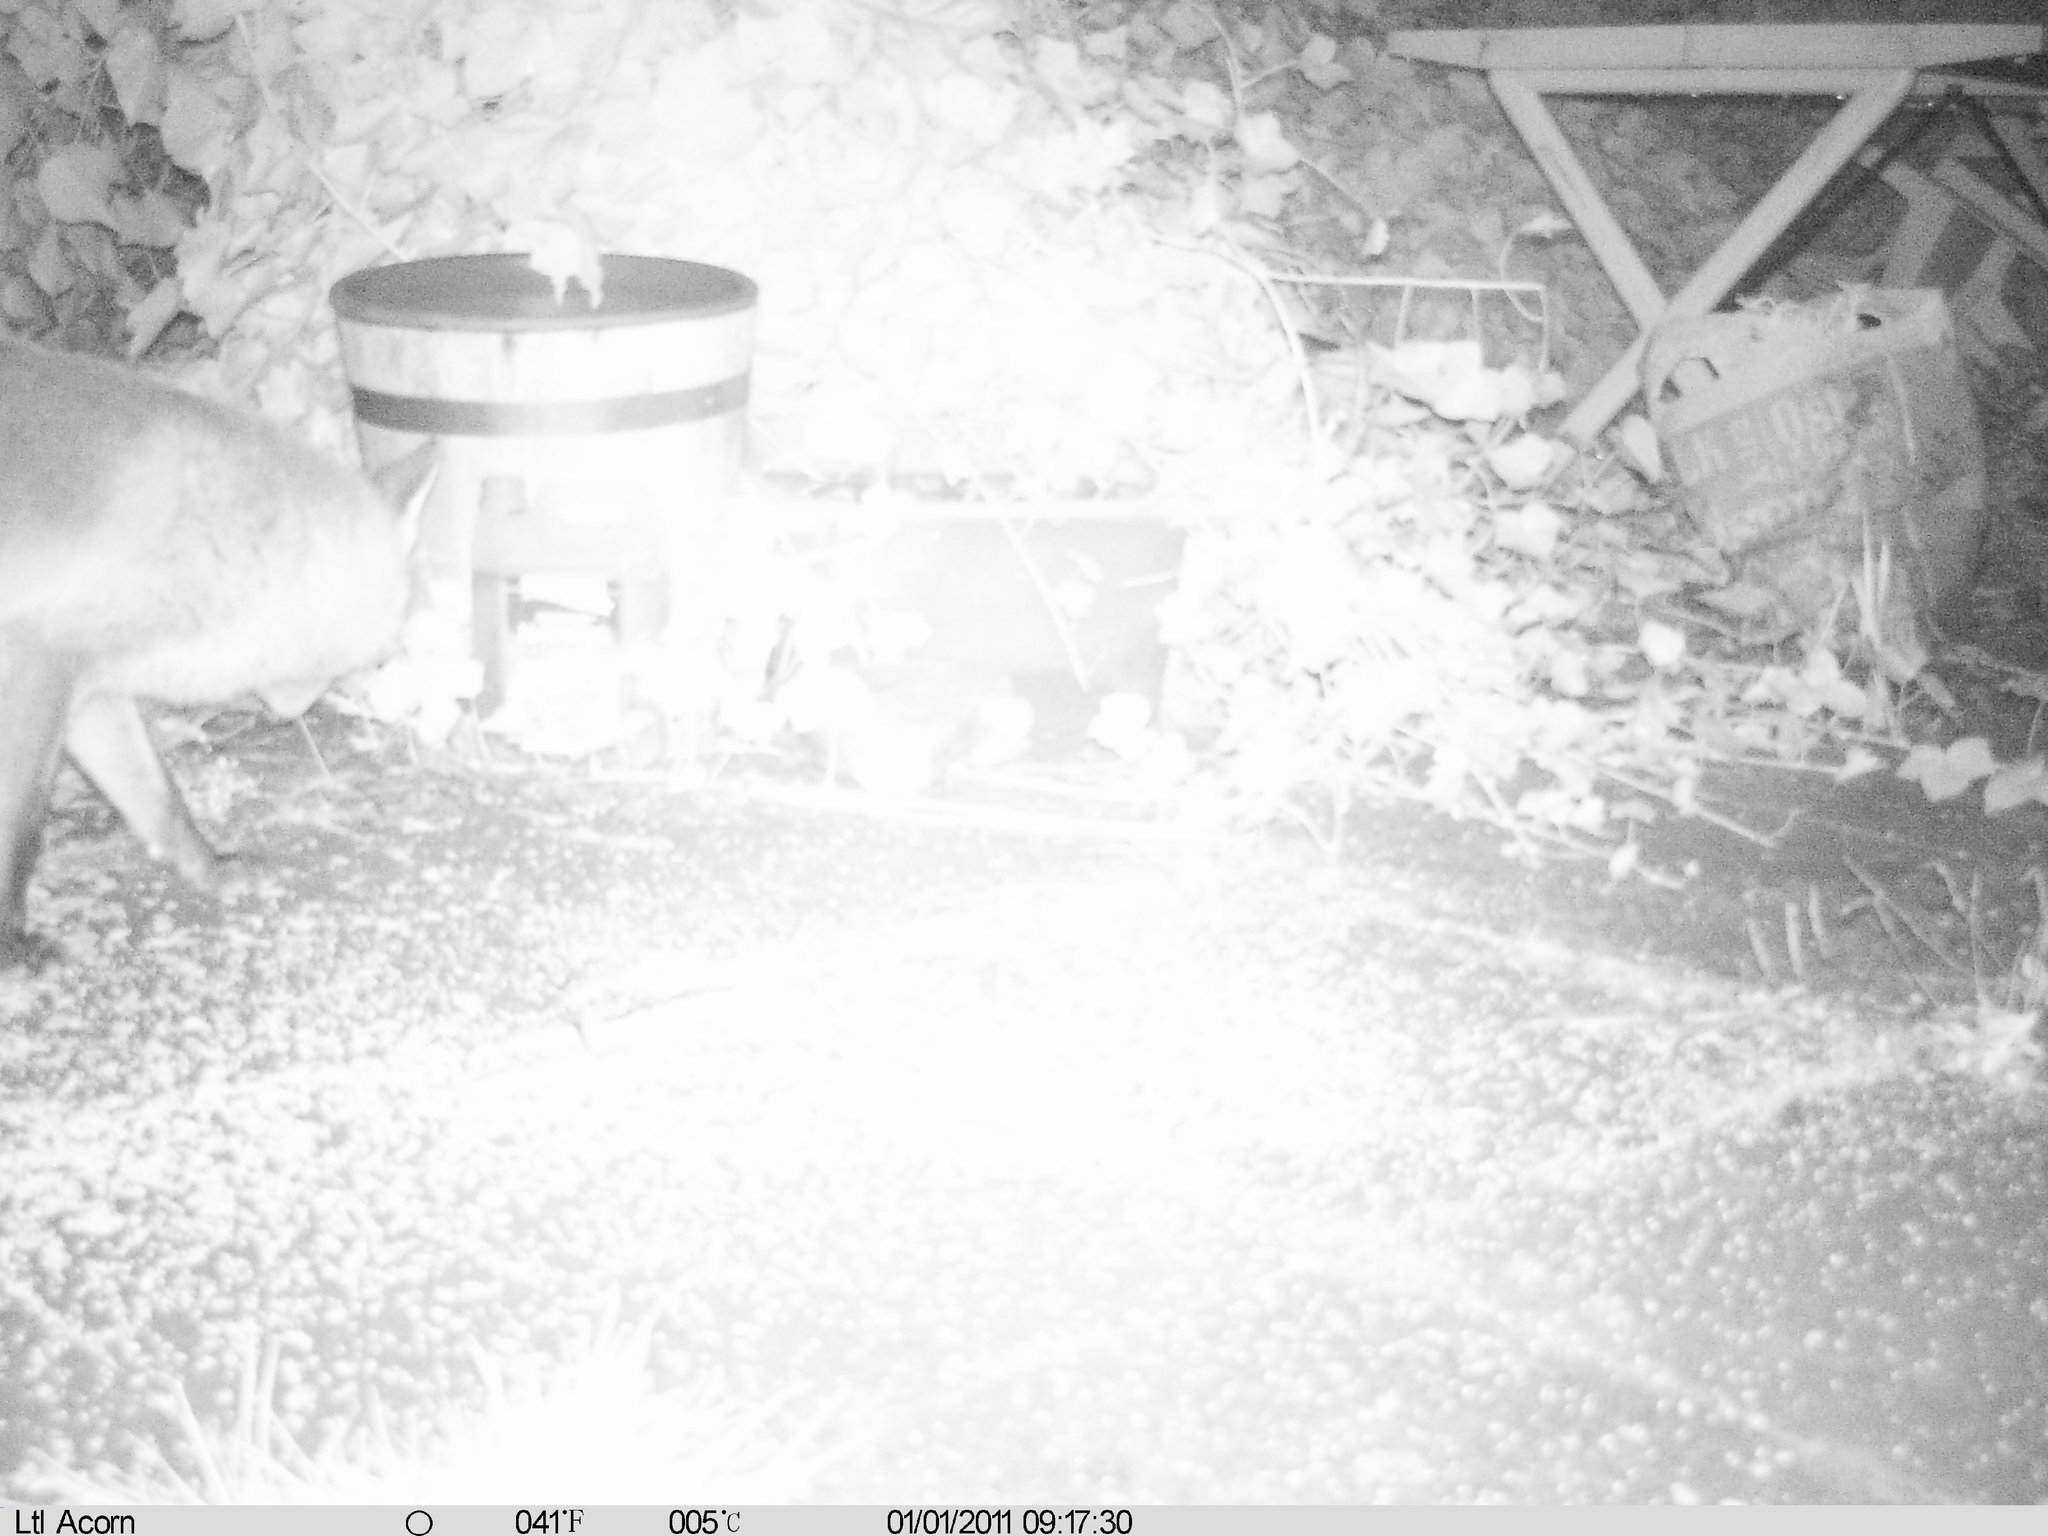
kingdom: Animalia
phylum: Chordata
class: Mammalia
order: Carnivora
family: Canidae
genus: Vulpes
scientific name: Vulpes vulpes
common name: Red fox
